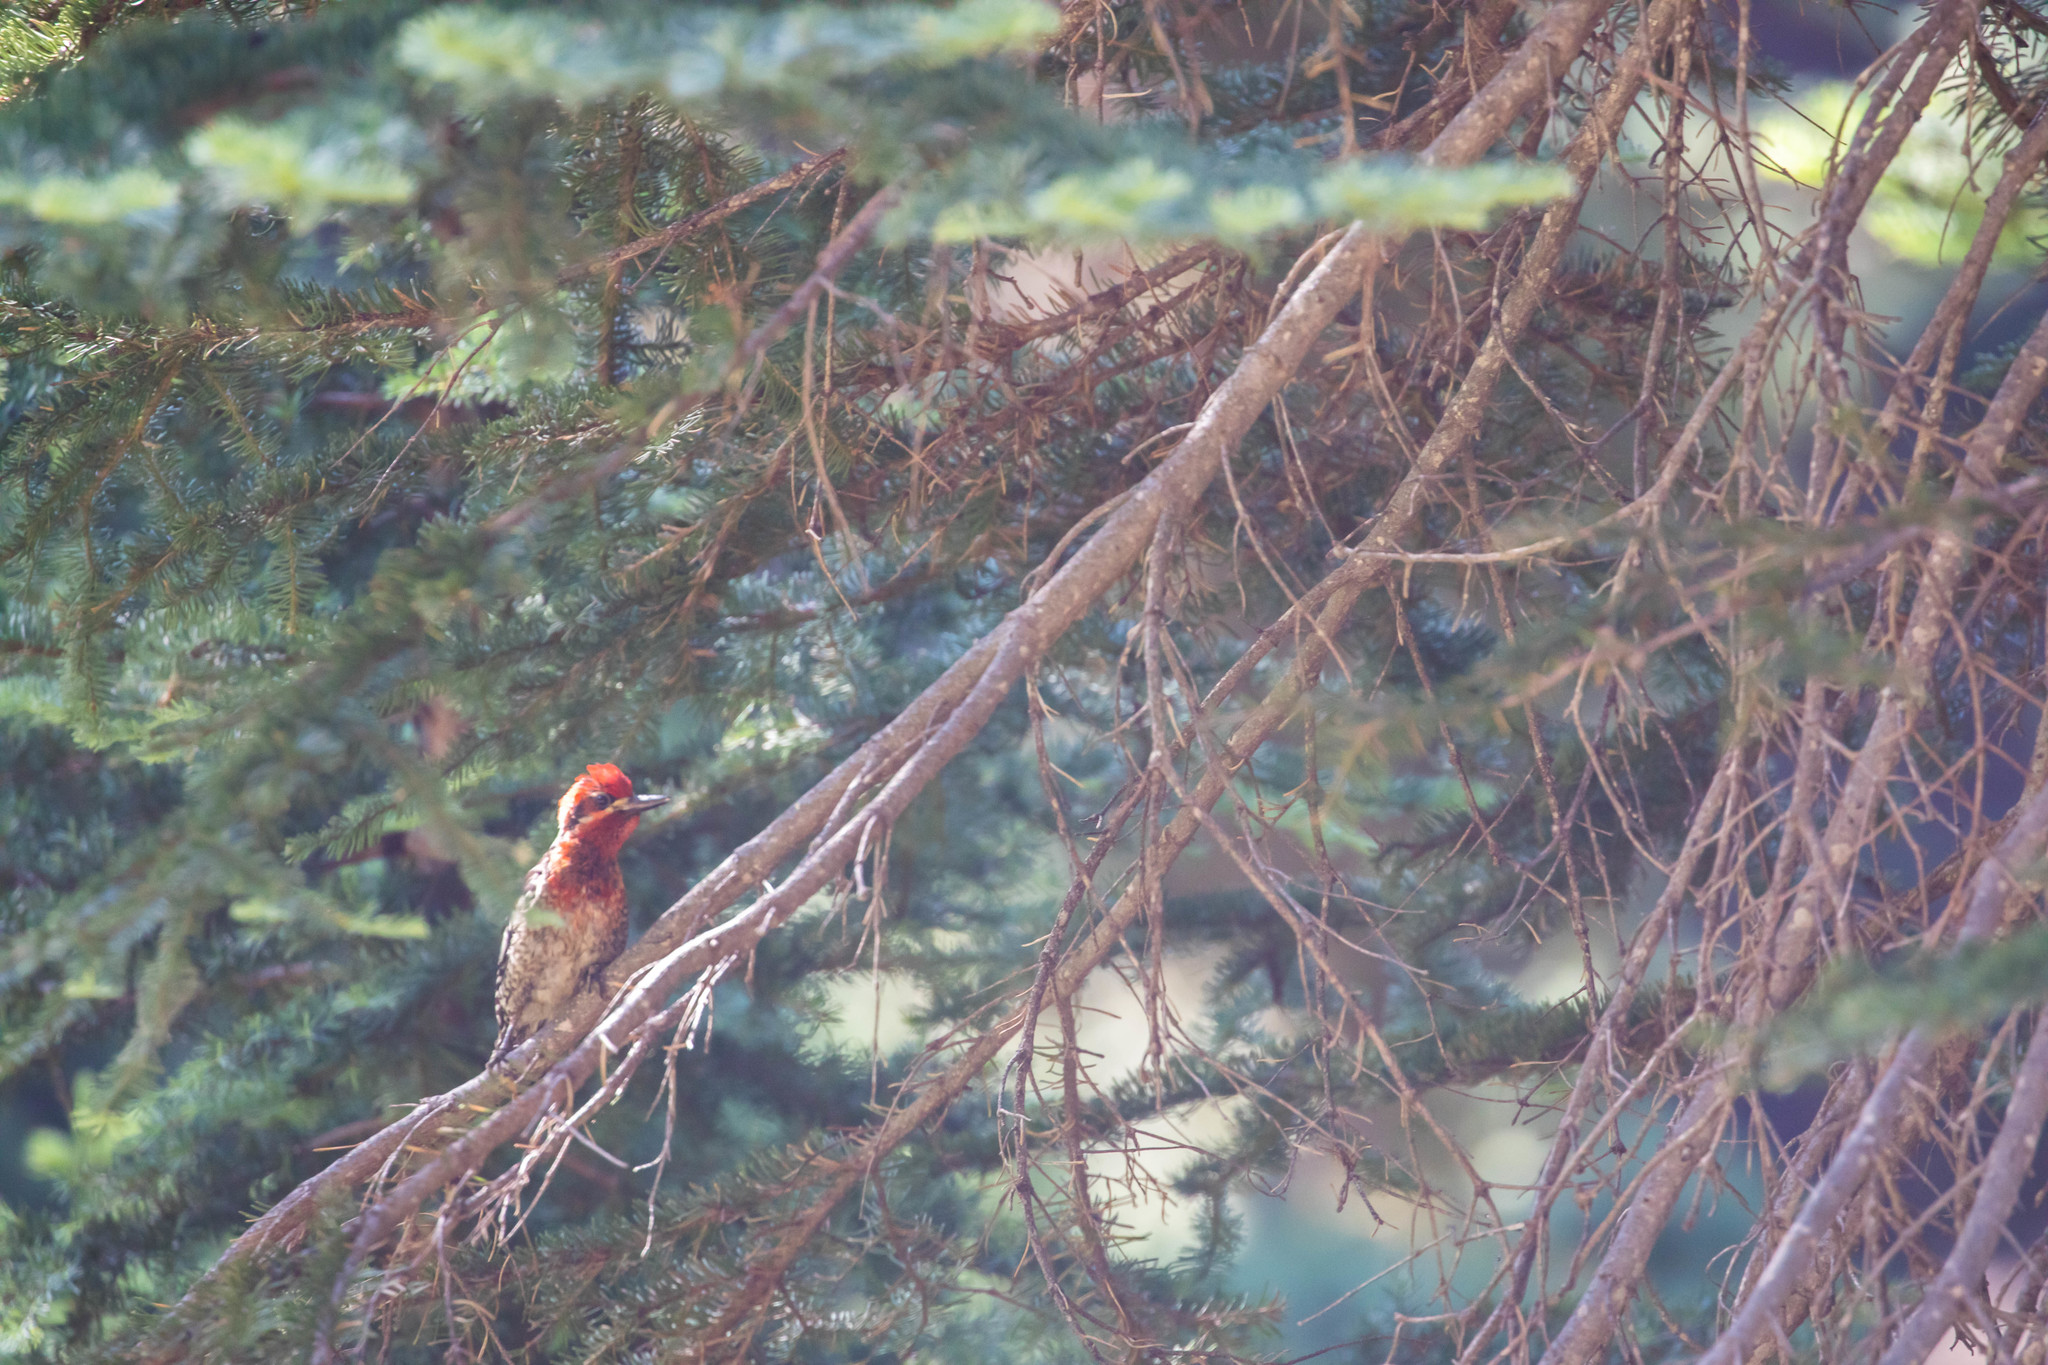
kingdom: Animalia
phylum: Chordata
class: Aves
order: Piciformes
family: Picidae
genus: Sphyrapicus
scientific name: Sphyrapicus ruber
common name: Red-breasted sapsucker
